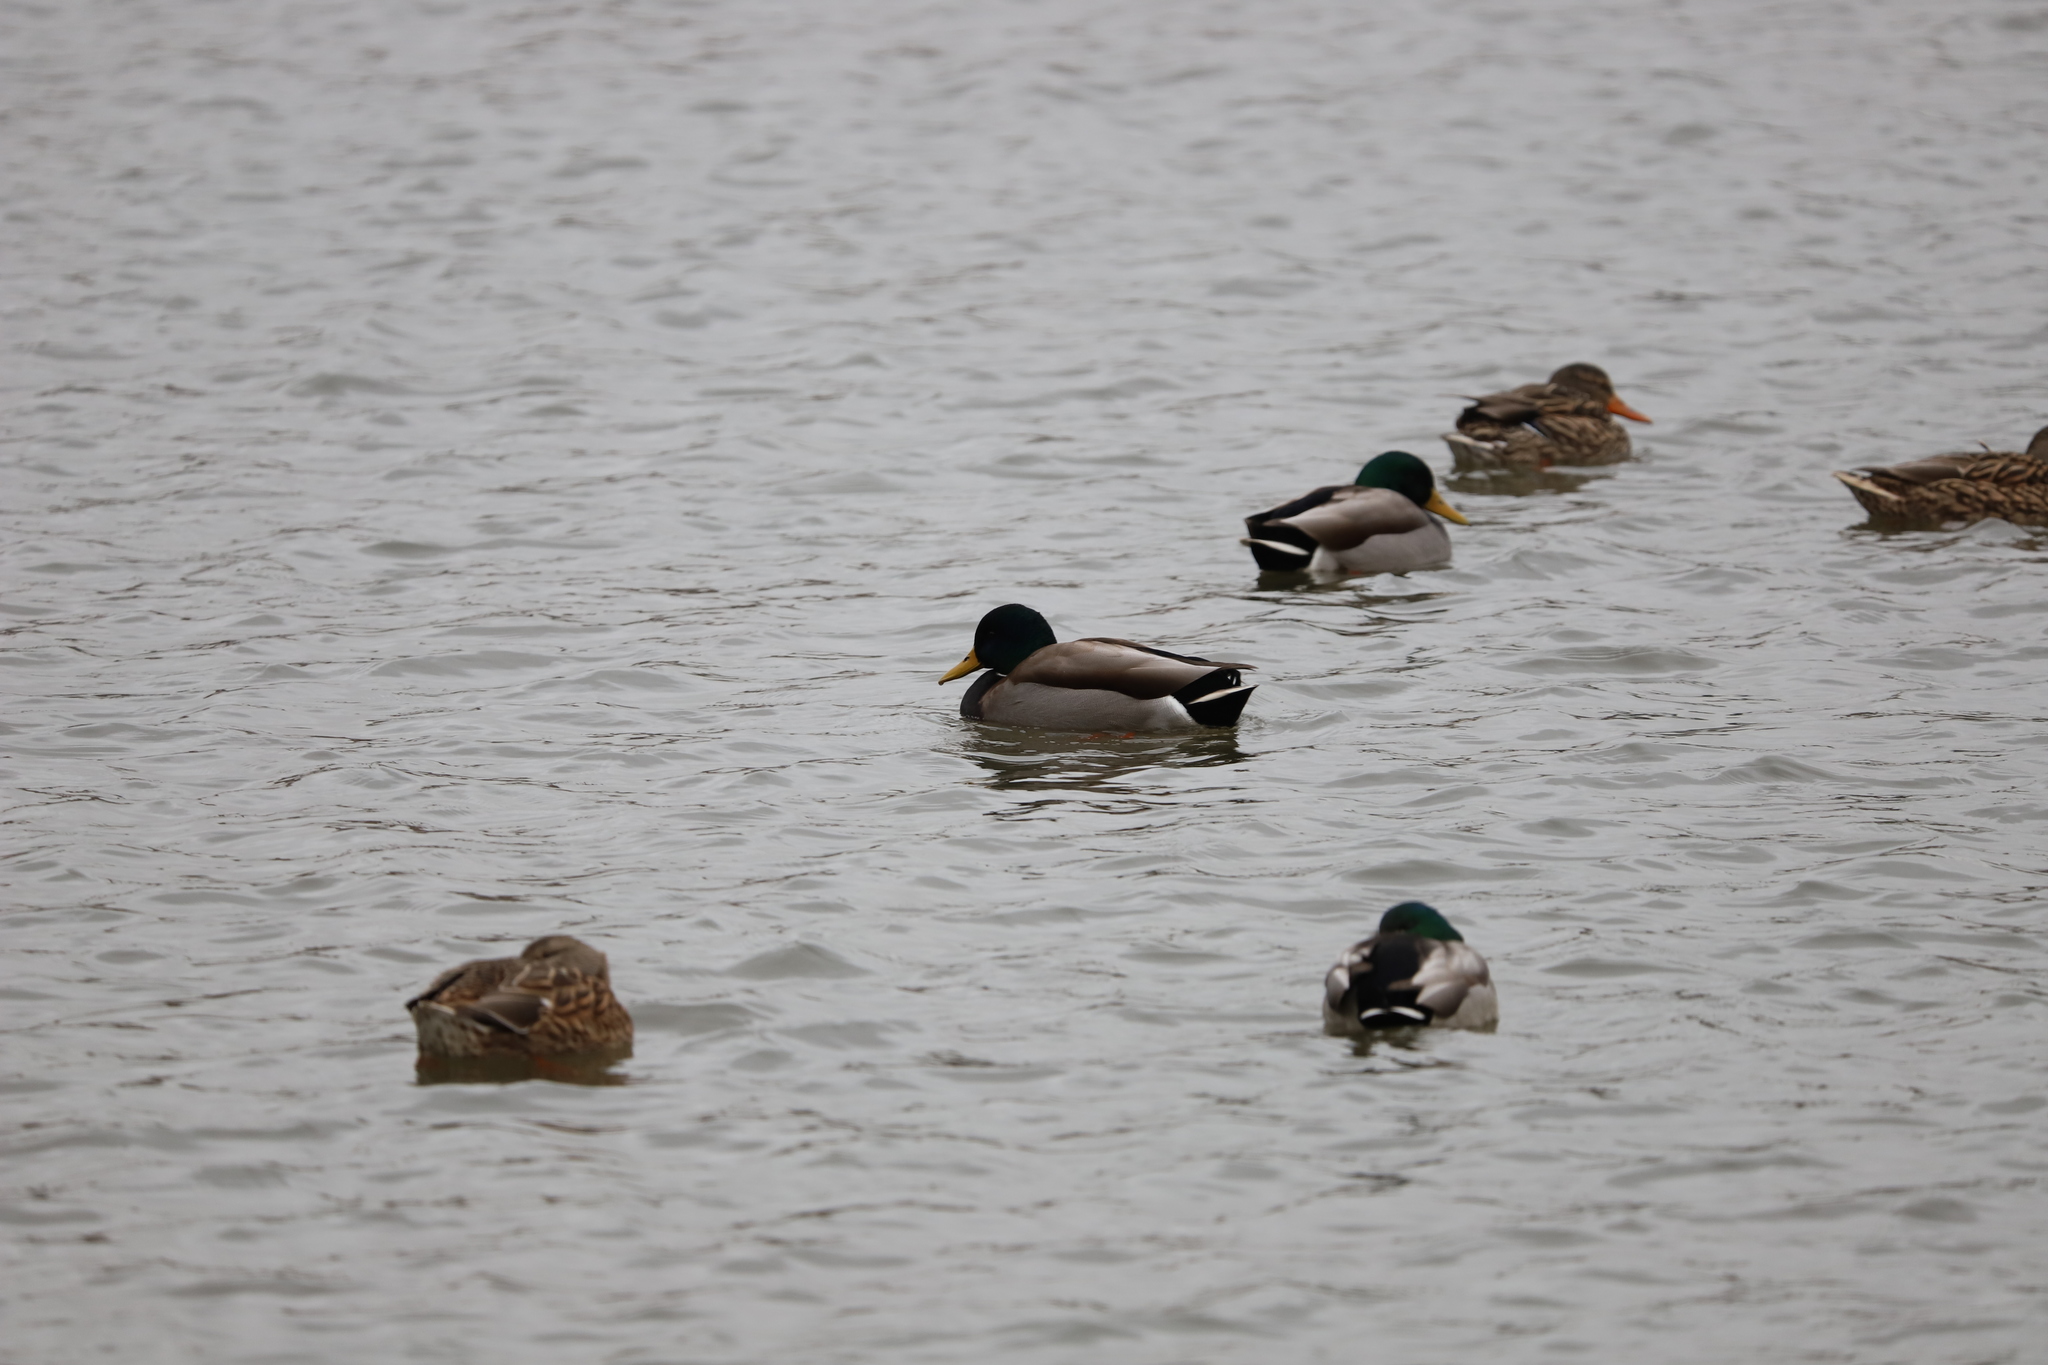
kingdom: Animalia
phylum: Chordata
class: Aves
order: Anseriformes
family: Anatidae
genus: Anas
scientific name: Anas platyrhynchos
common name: Mallard
